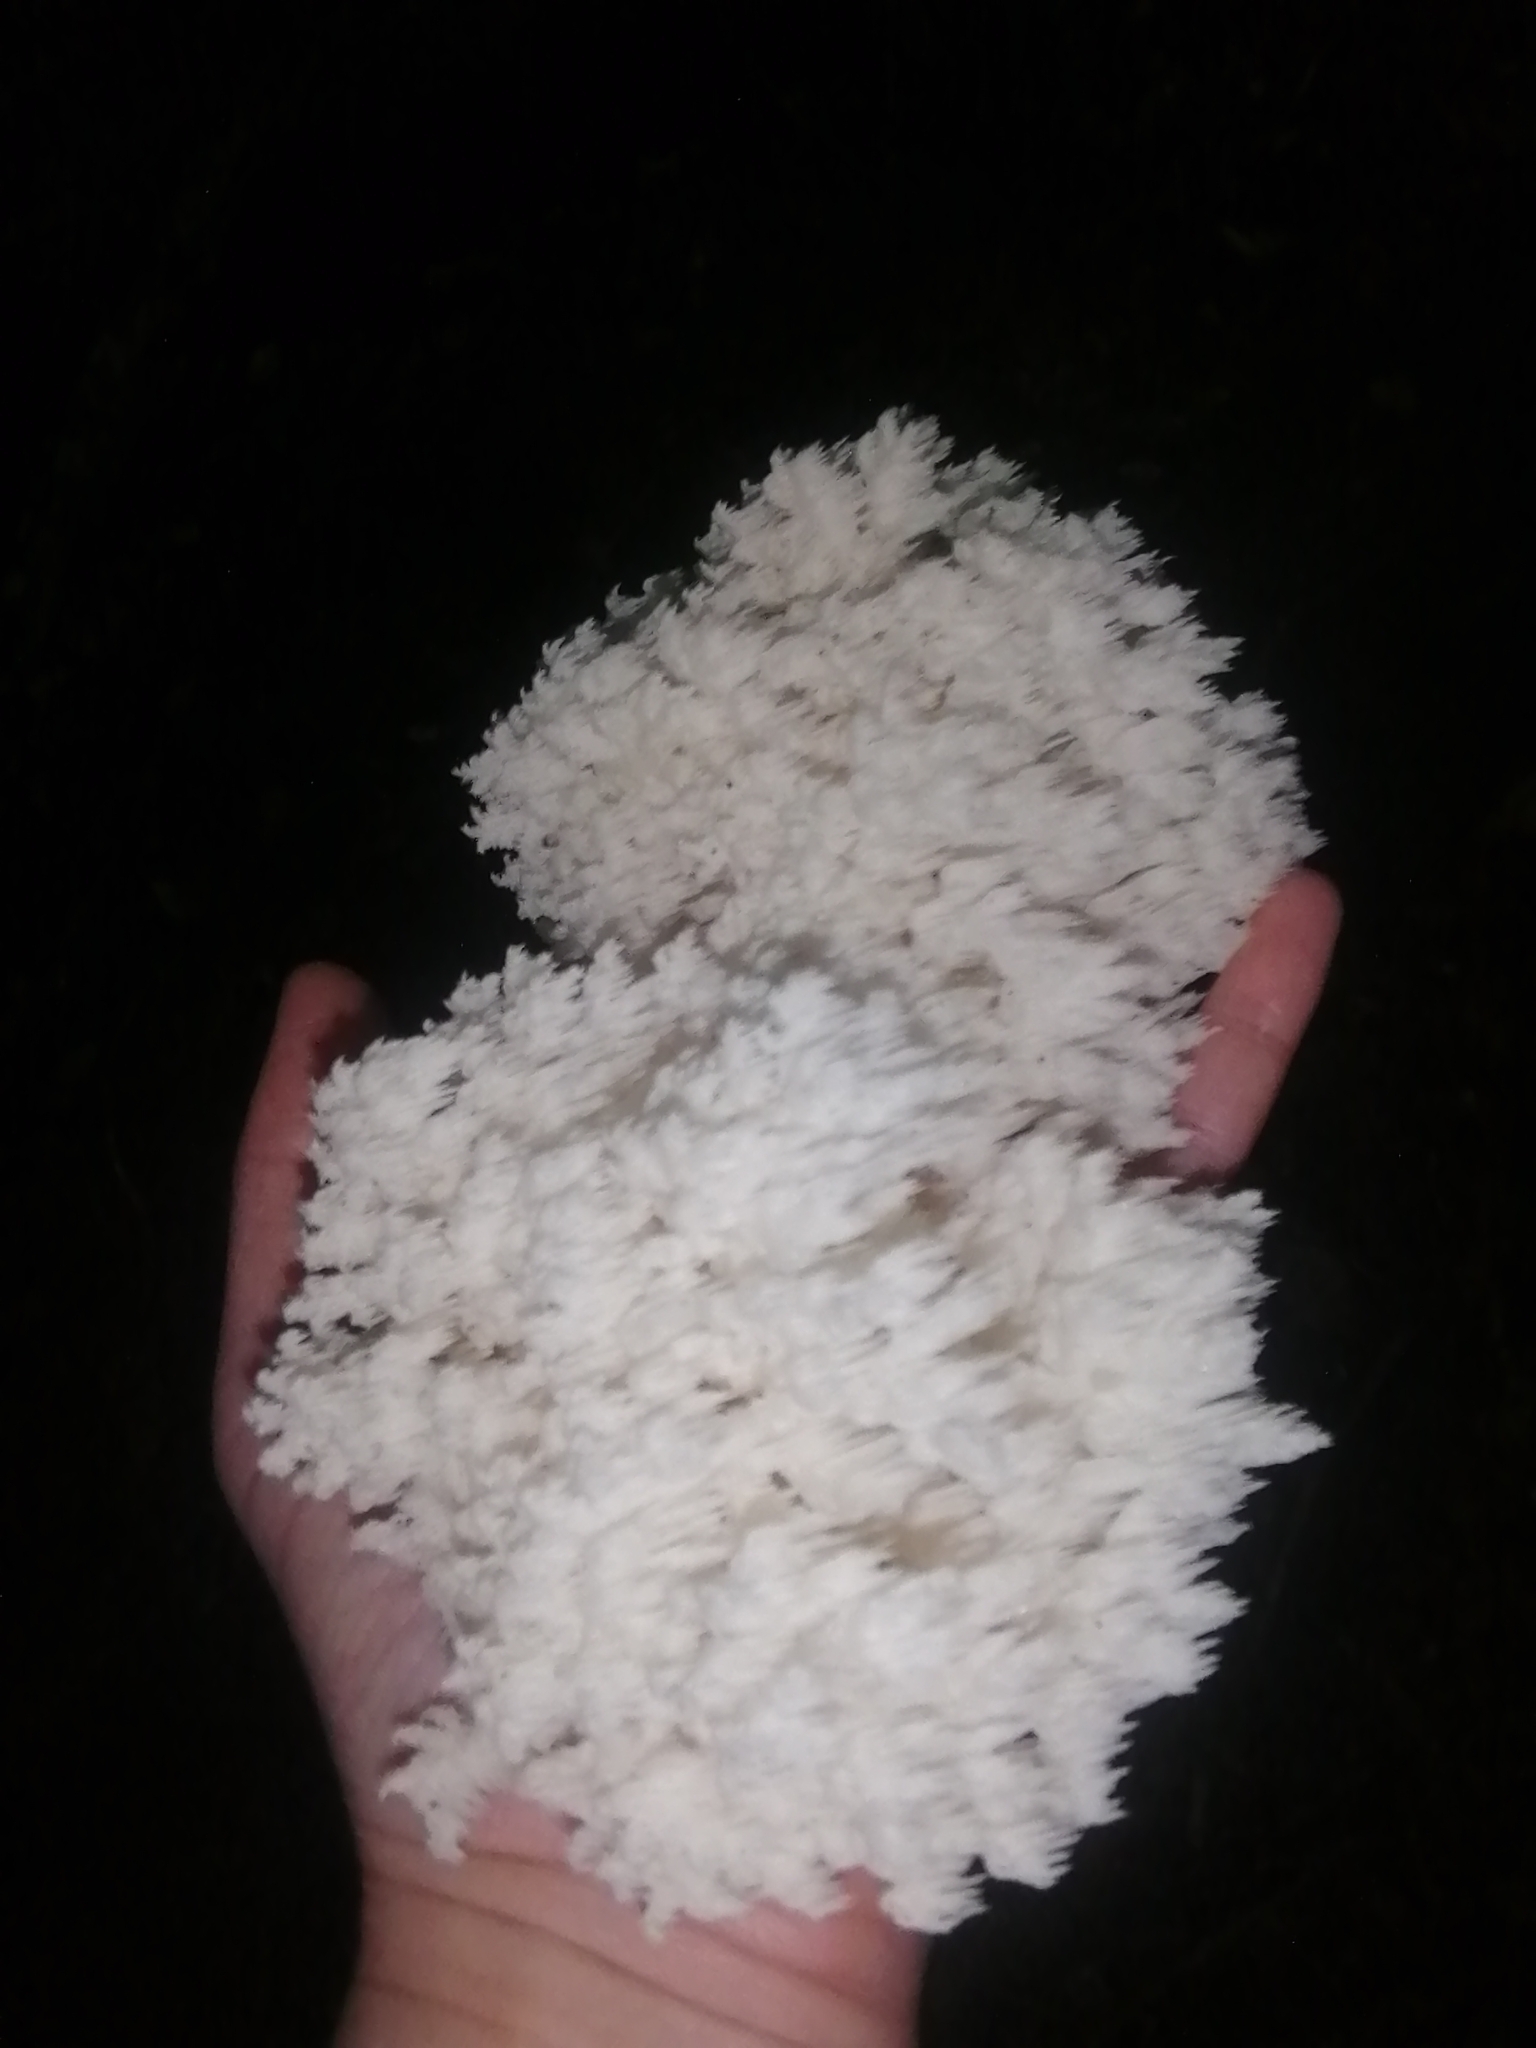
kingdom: Fungi
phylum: Basidiomycota
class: Agaricomycetes
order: Russulales
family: Hericiaceae
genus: Hericium
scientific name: Hericium coralloides
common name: Coral tooth
